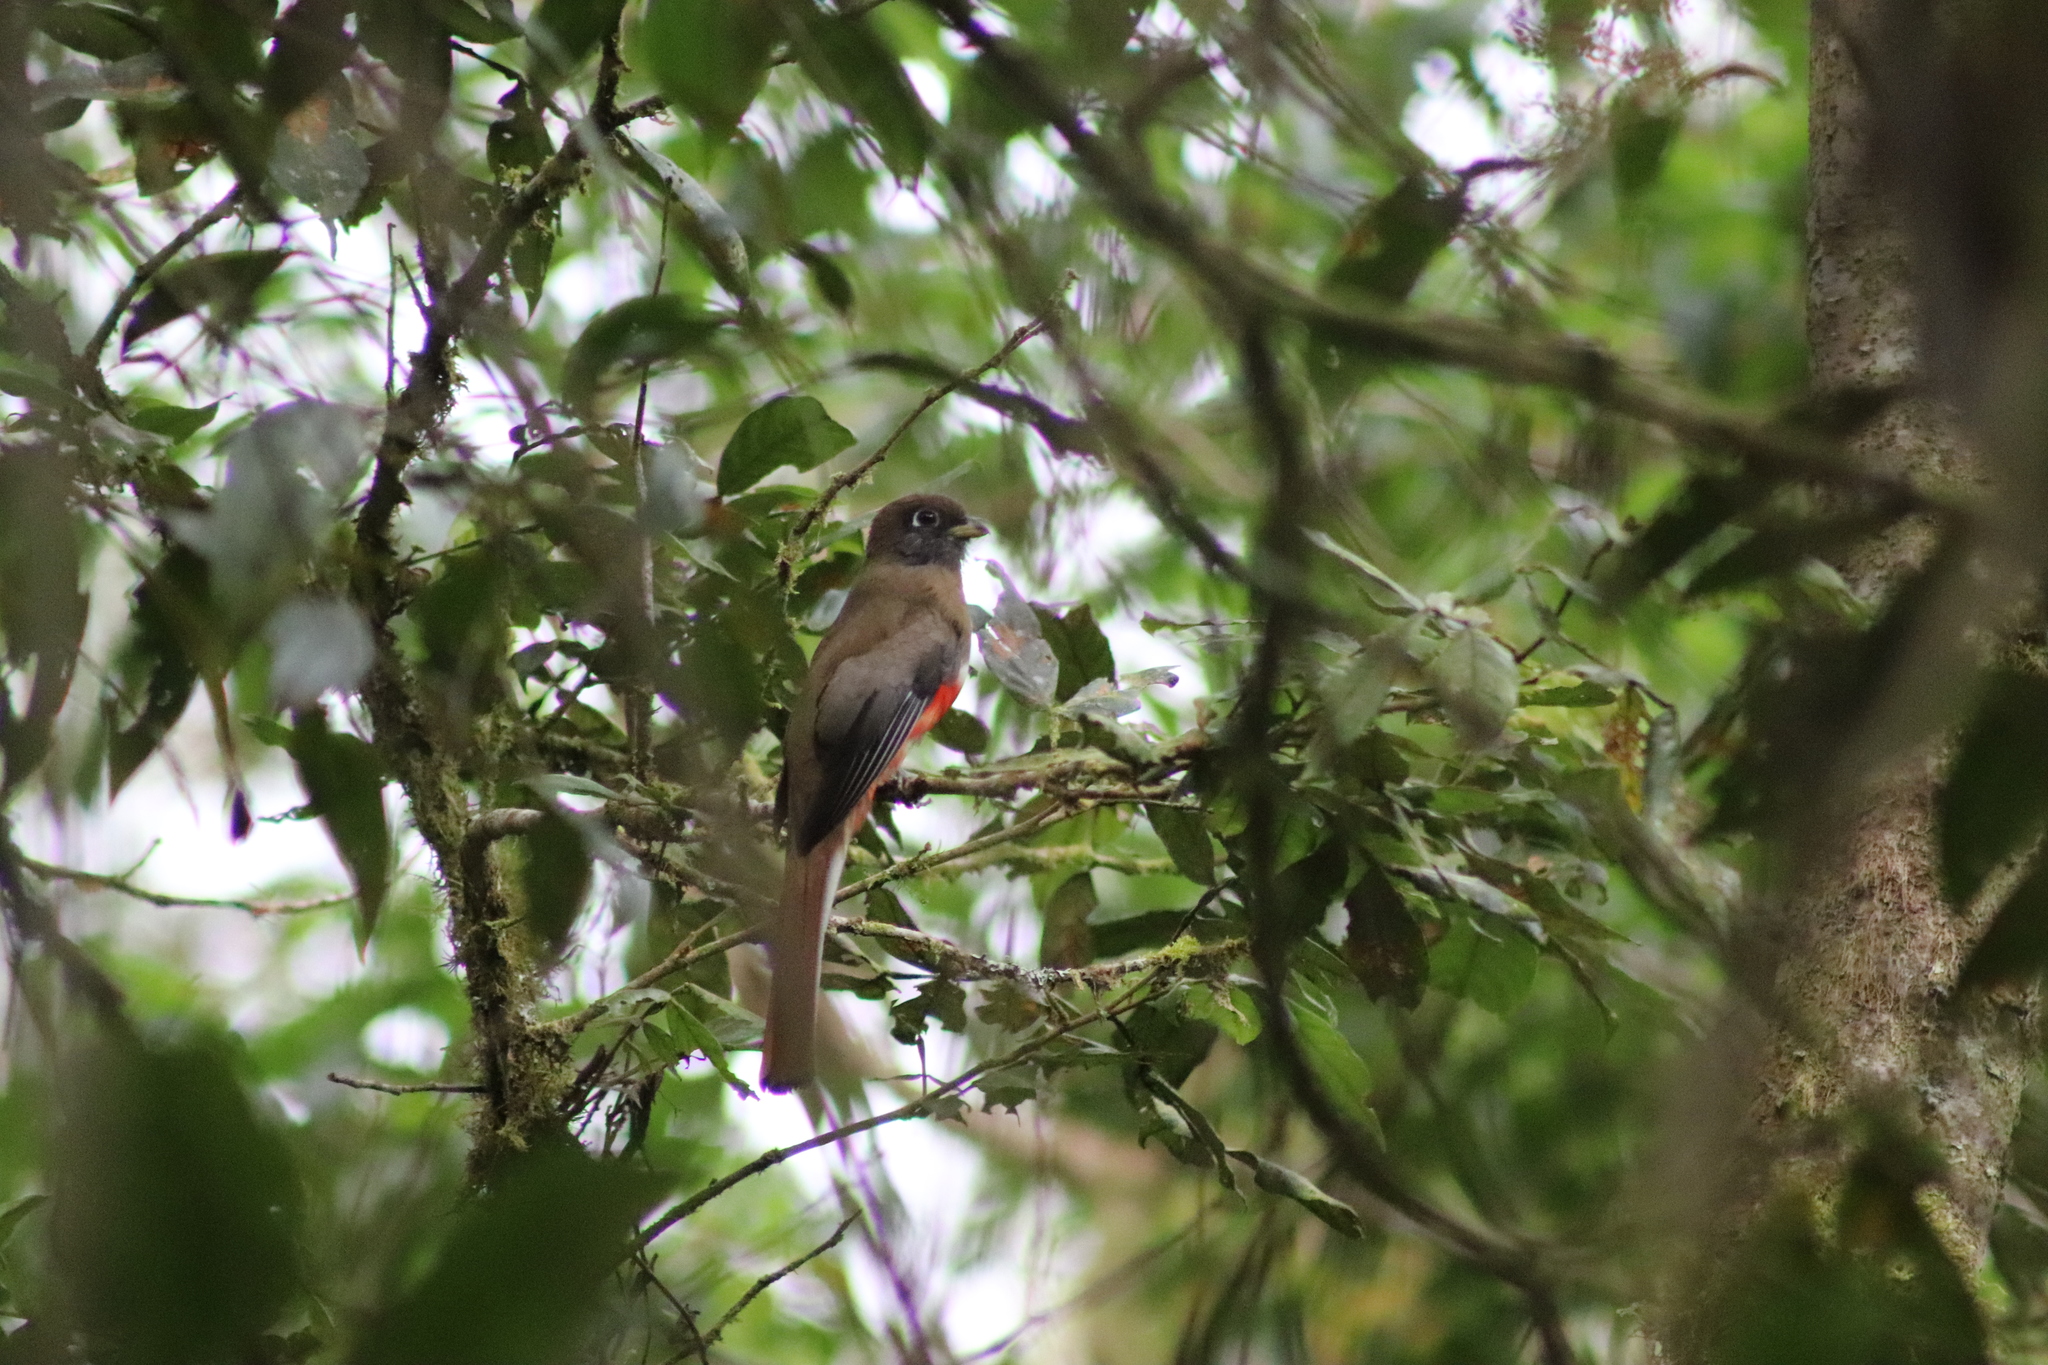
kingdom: Animalia
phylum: Chordata
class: Aves
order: Trogoniformes
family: Trogonidae
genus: Trogon
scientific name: Trogon collaris
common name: Collared trogon
